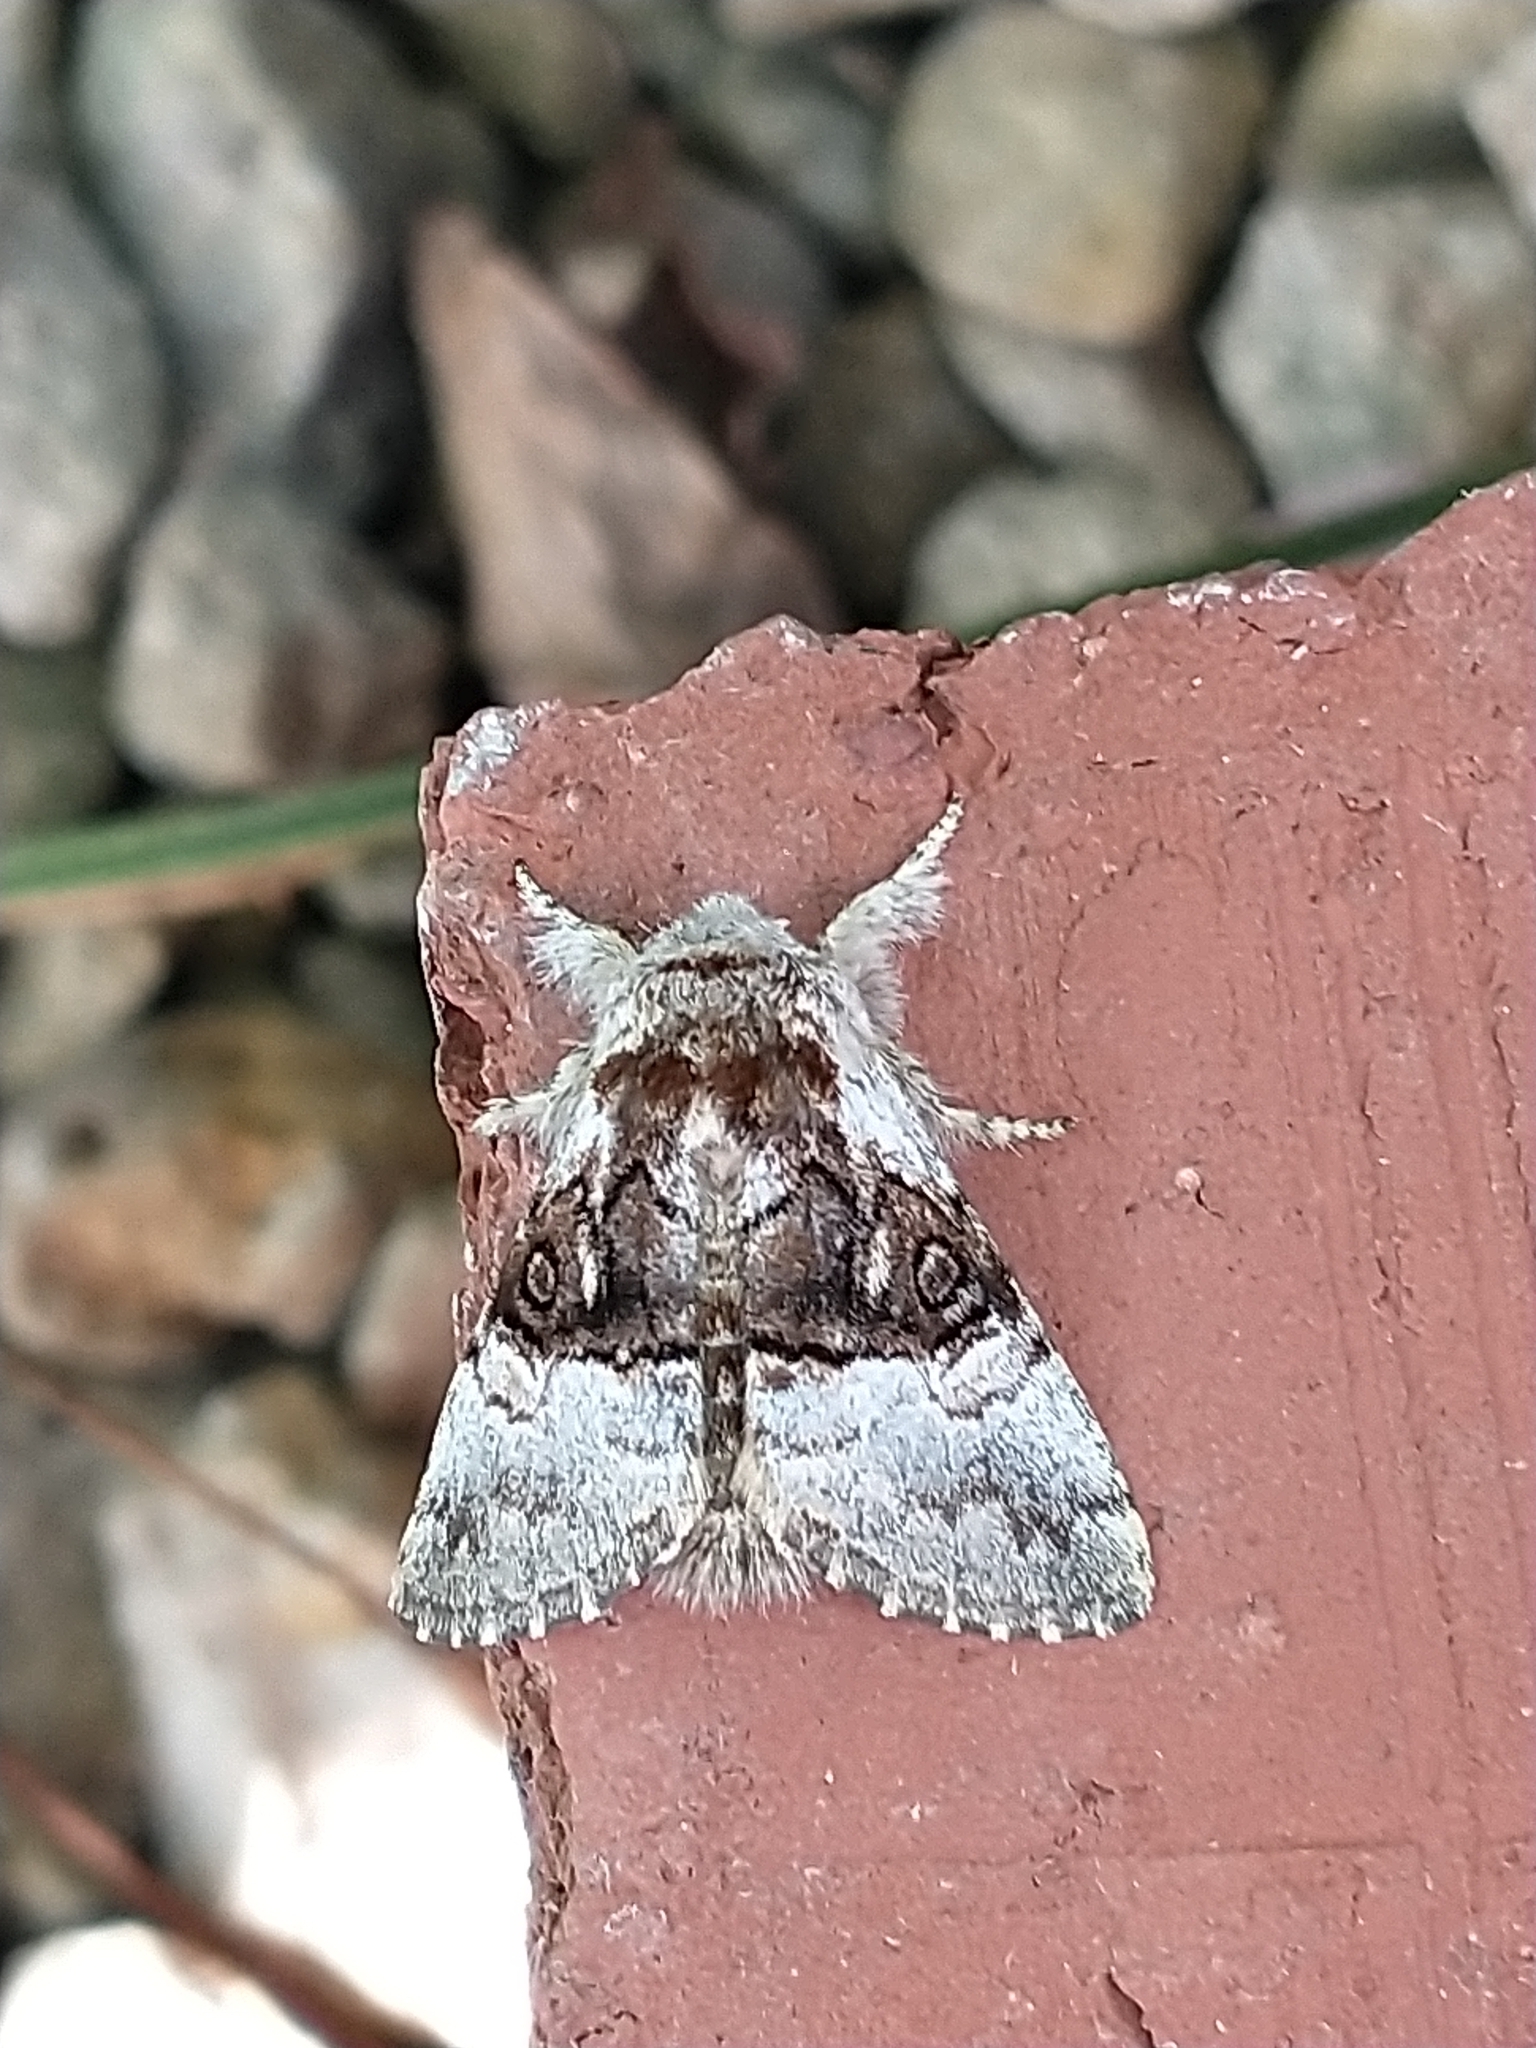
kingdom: Animalia
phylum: Arthropoda
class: Insecta
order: Lepidoptera
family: Noctuidae
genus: Colocasia
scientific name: Colocasia coryli
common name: Nut-tree tussock
